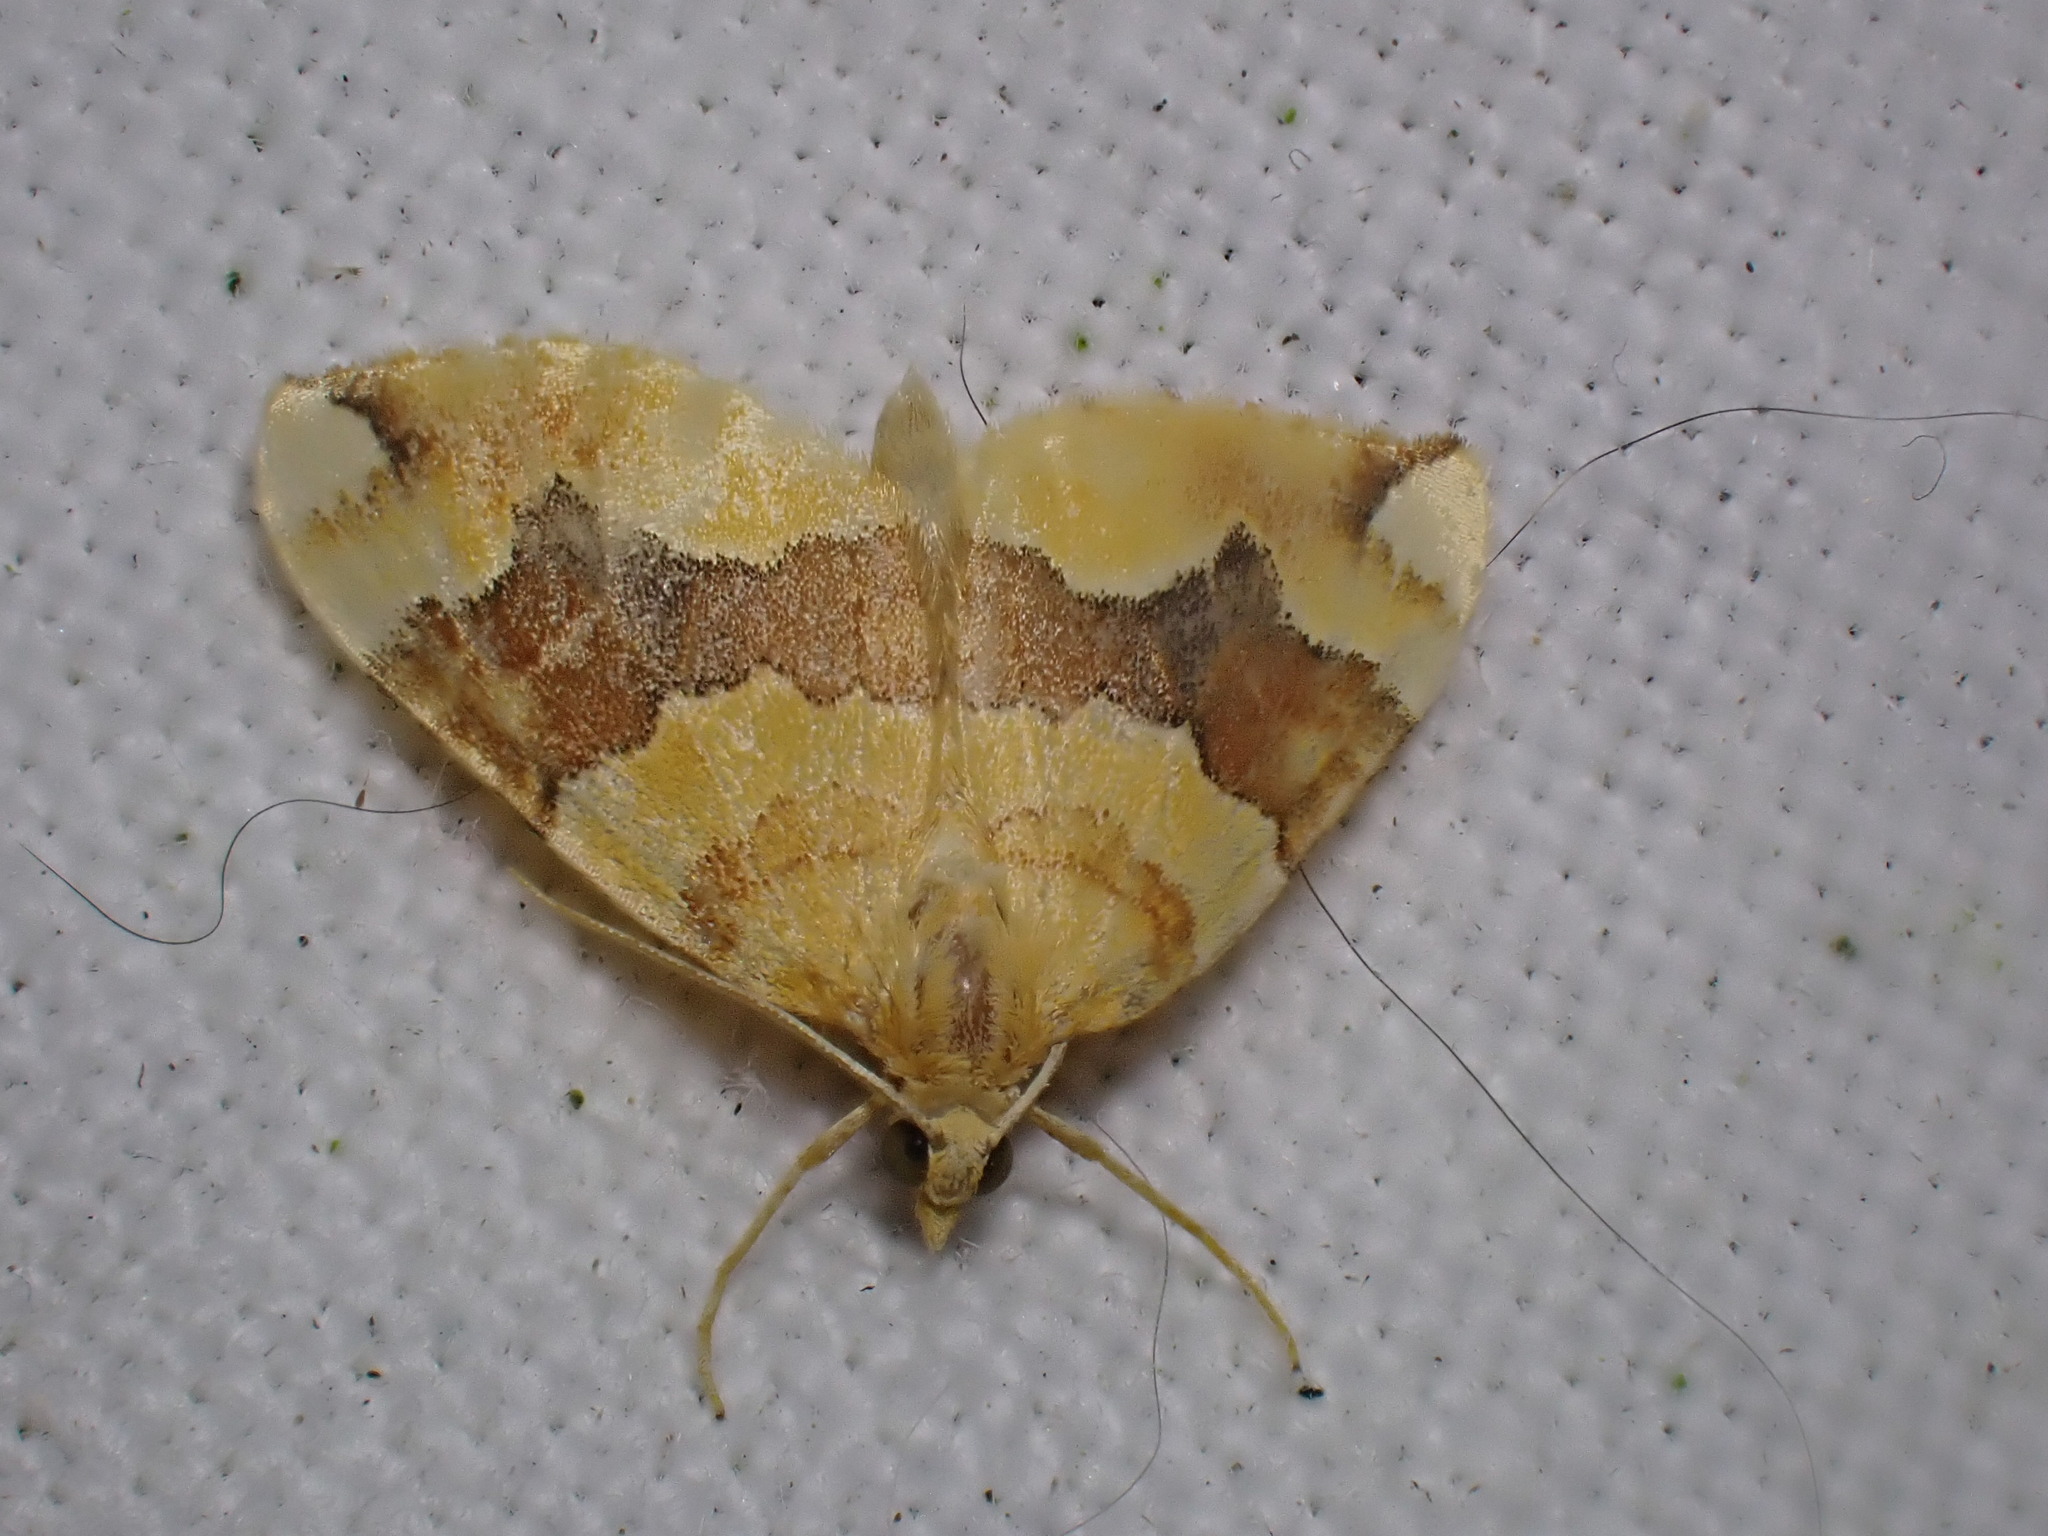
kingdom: Animalia
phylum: Arthropoda
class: Insecta
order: Lepidoptera
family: Geometridae
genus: Cidaria
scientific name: Cidaria fulvata
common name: Barred yellow
